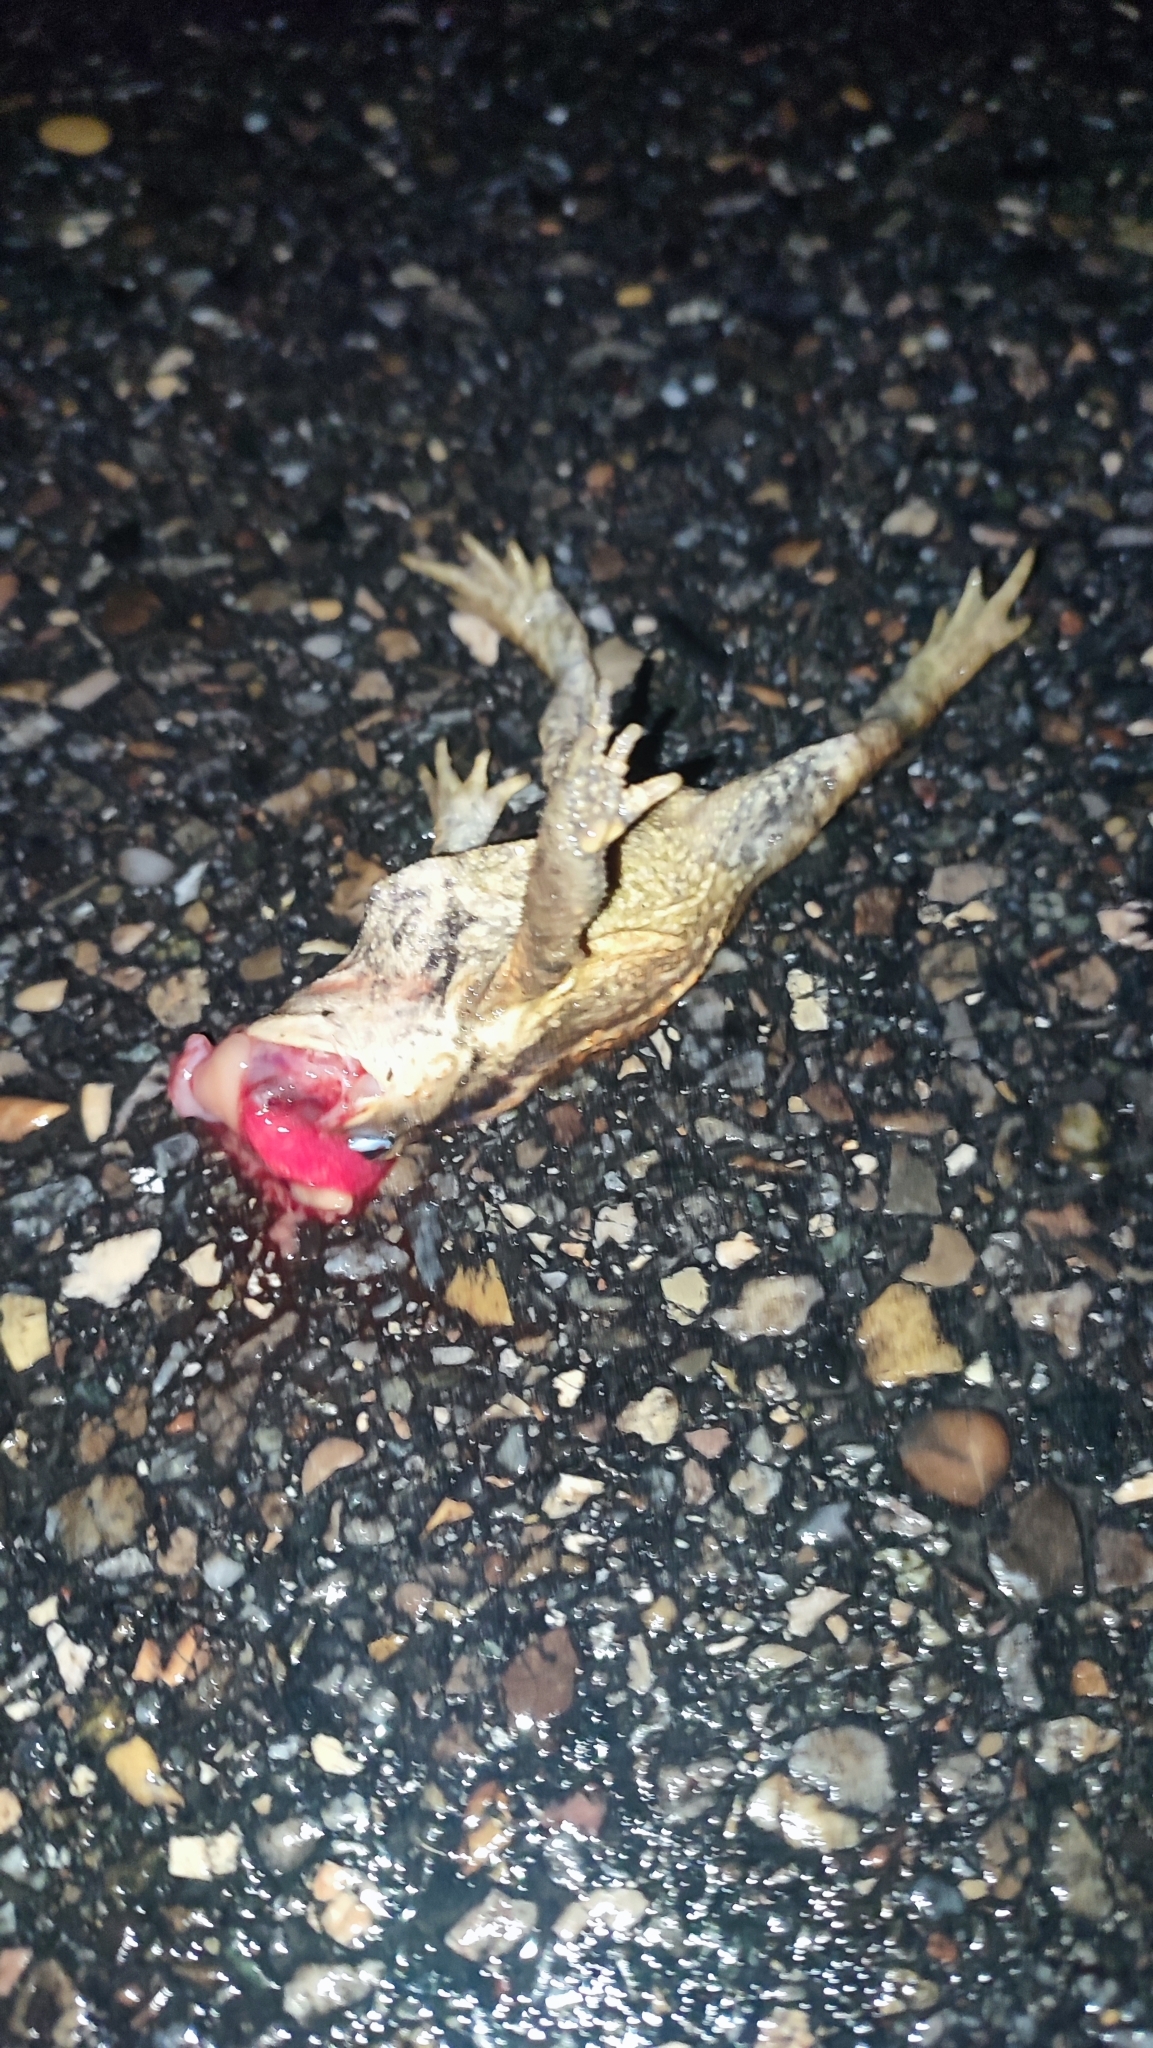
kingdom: Animalia
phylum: Chordata
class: Amphibia
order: Anura
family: Bufonidae
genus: Bufo
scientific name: Bufo spinosus
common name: Western common toad
